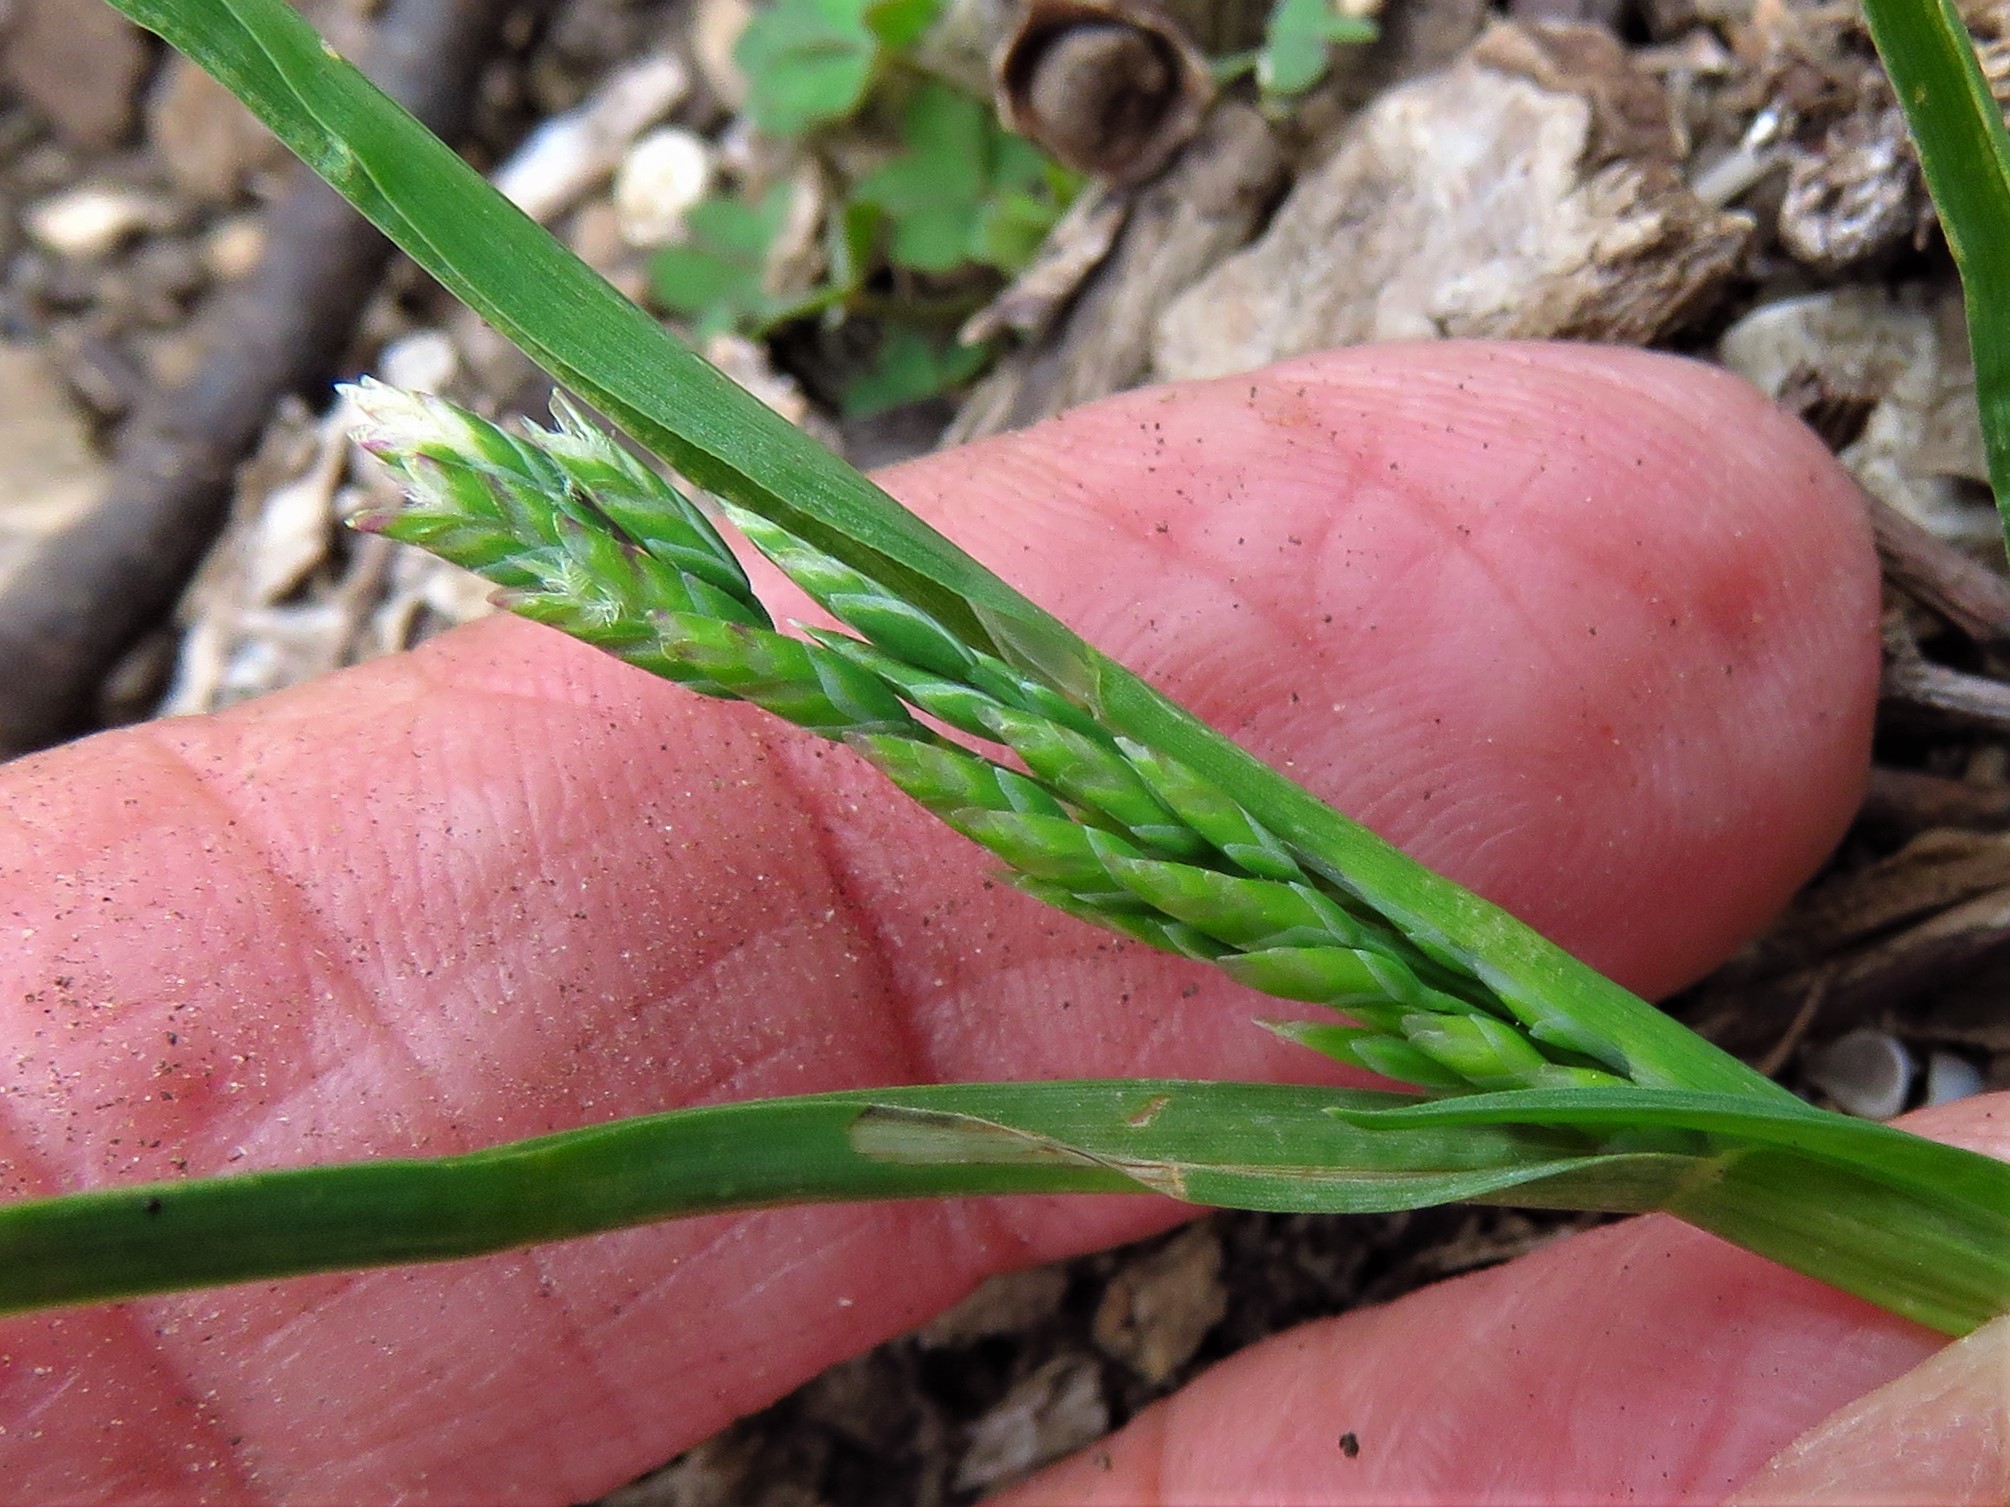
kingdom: Plantae
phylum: Tracheophyta
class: Liliopsida
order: Poales
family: Poaceae
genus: Poa
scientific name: Poa annua
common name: Annual bluegrass
